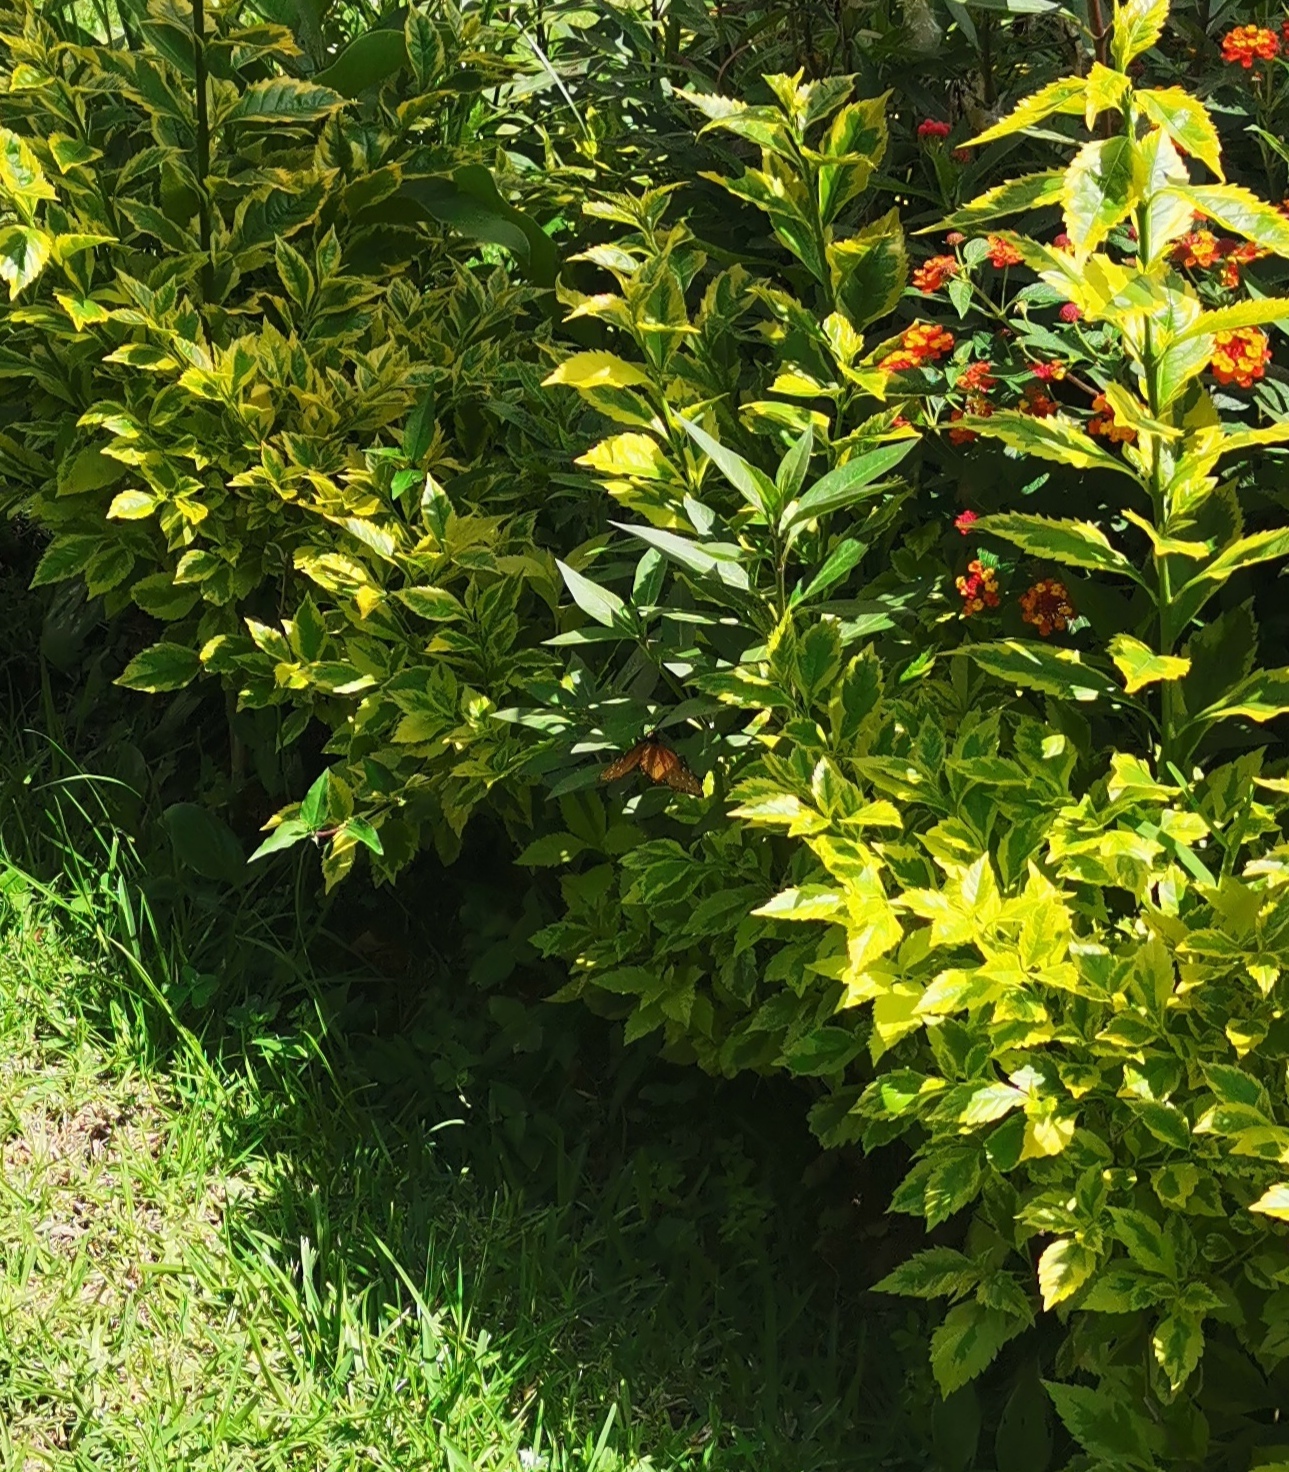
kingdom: Animalia
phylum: Arthropoda
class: Insecta
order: Lepidoptera
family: Nymphalidae
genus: Danaus
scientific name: Danaus gilippus
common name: Queen
